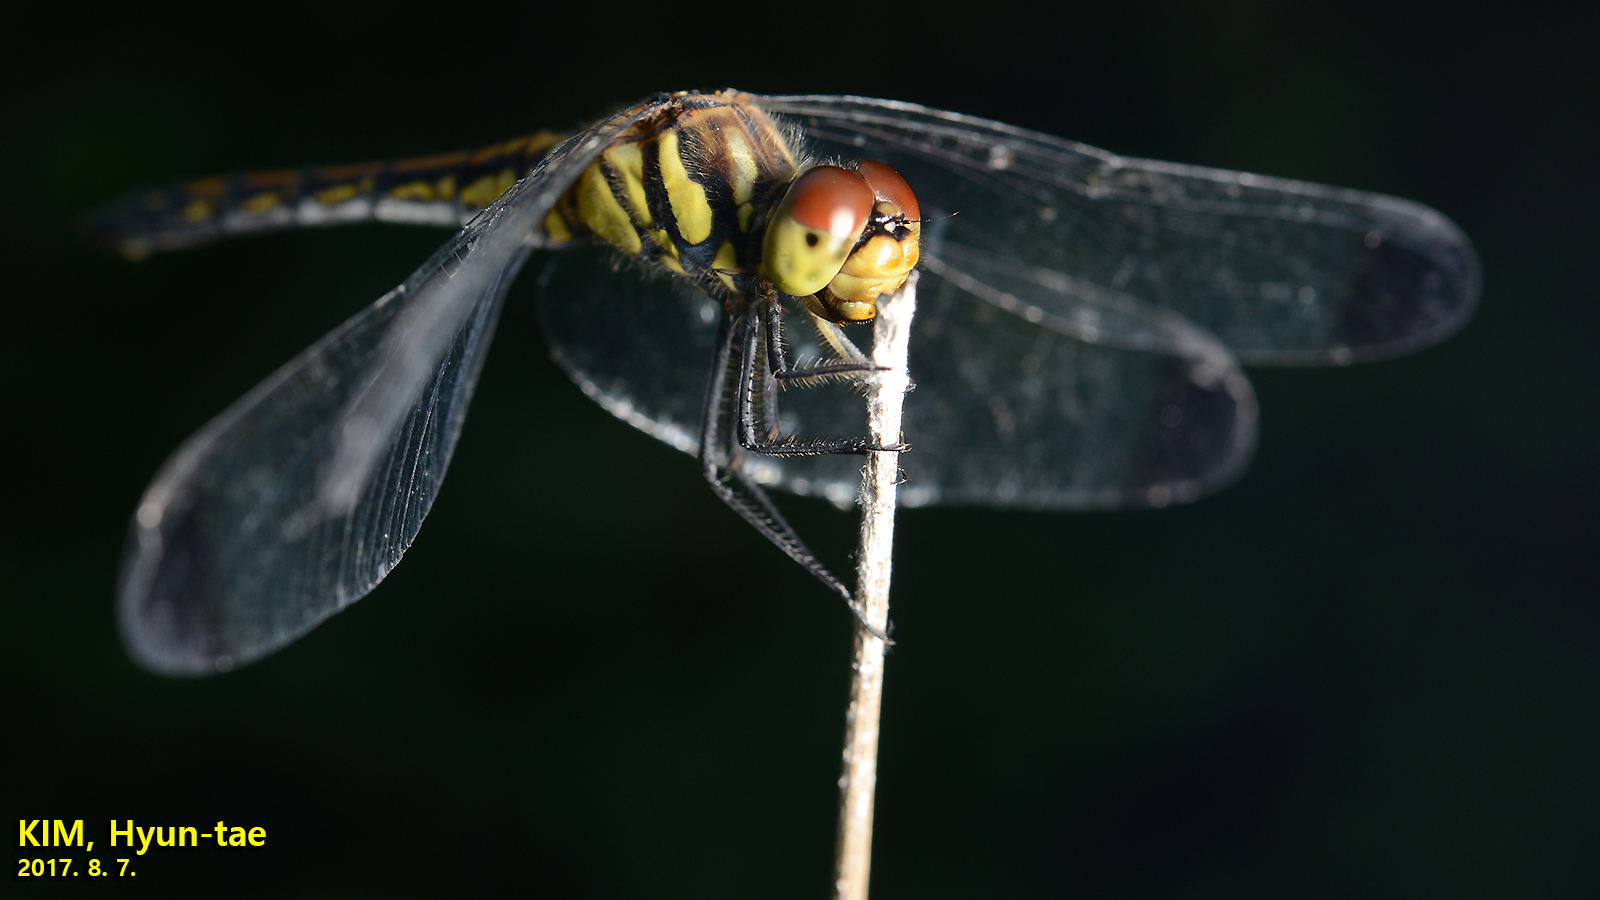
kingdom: Animalia
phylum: Arthropoda
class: Insecta
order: Odonata
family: Libellulidae
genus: Sympetrum
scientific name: Sympetrum infuscatum
